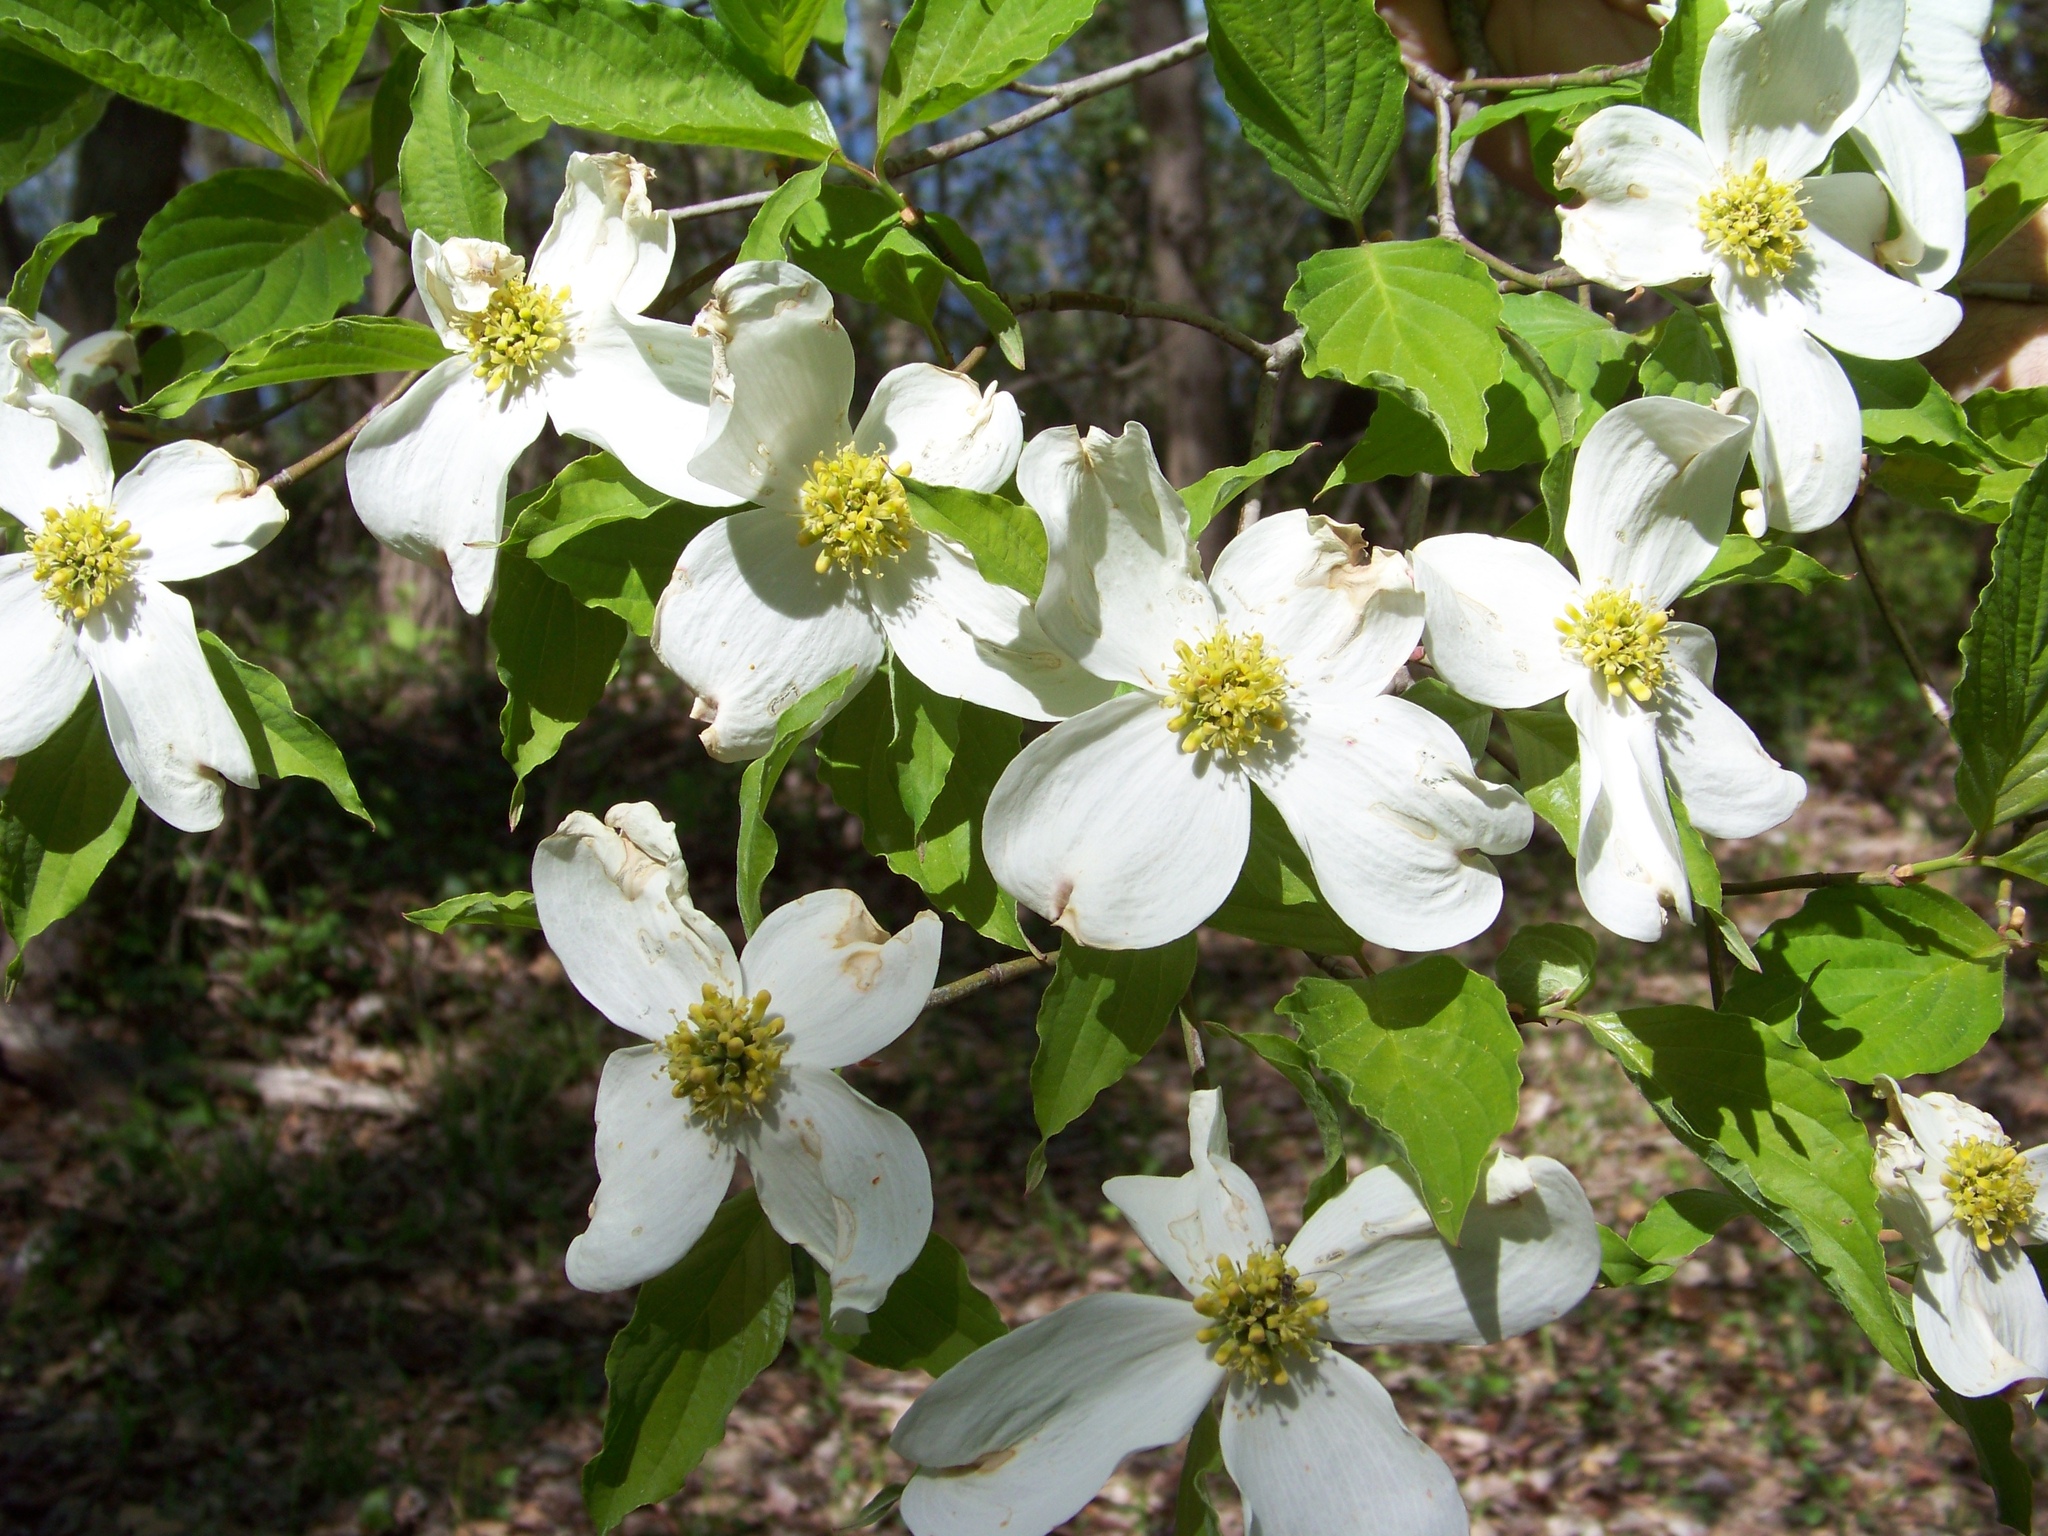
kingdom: Plantae
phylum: Tracheophyta
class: Magnoliopsida
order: Cornales
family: Cornaceae
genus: Cornus
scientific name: Cornus florida
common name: Flowering dogwood
